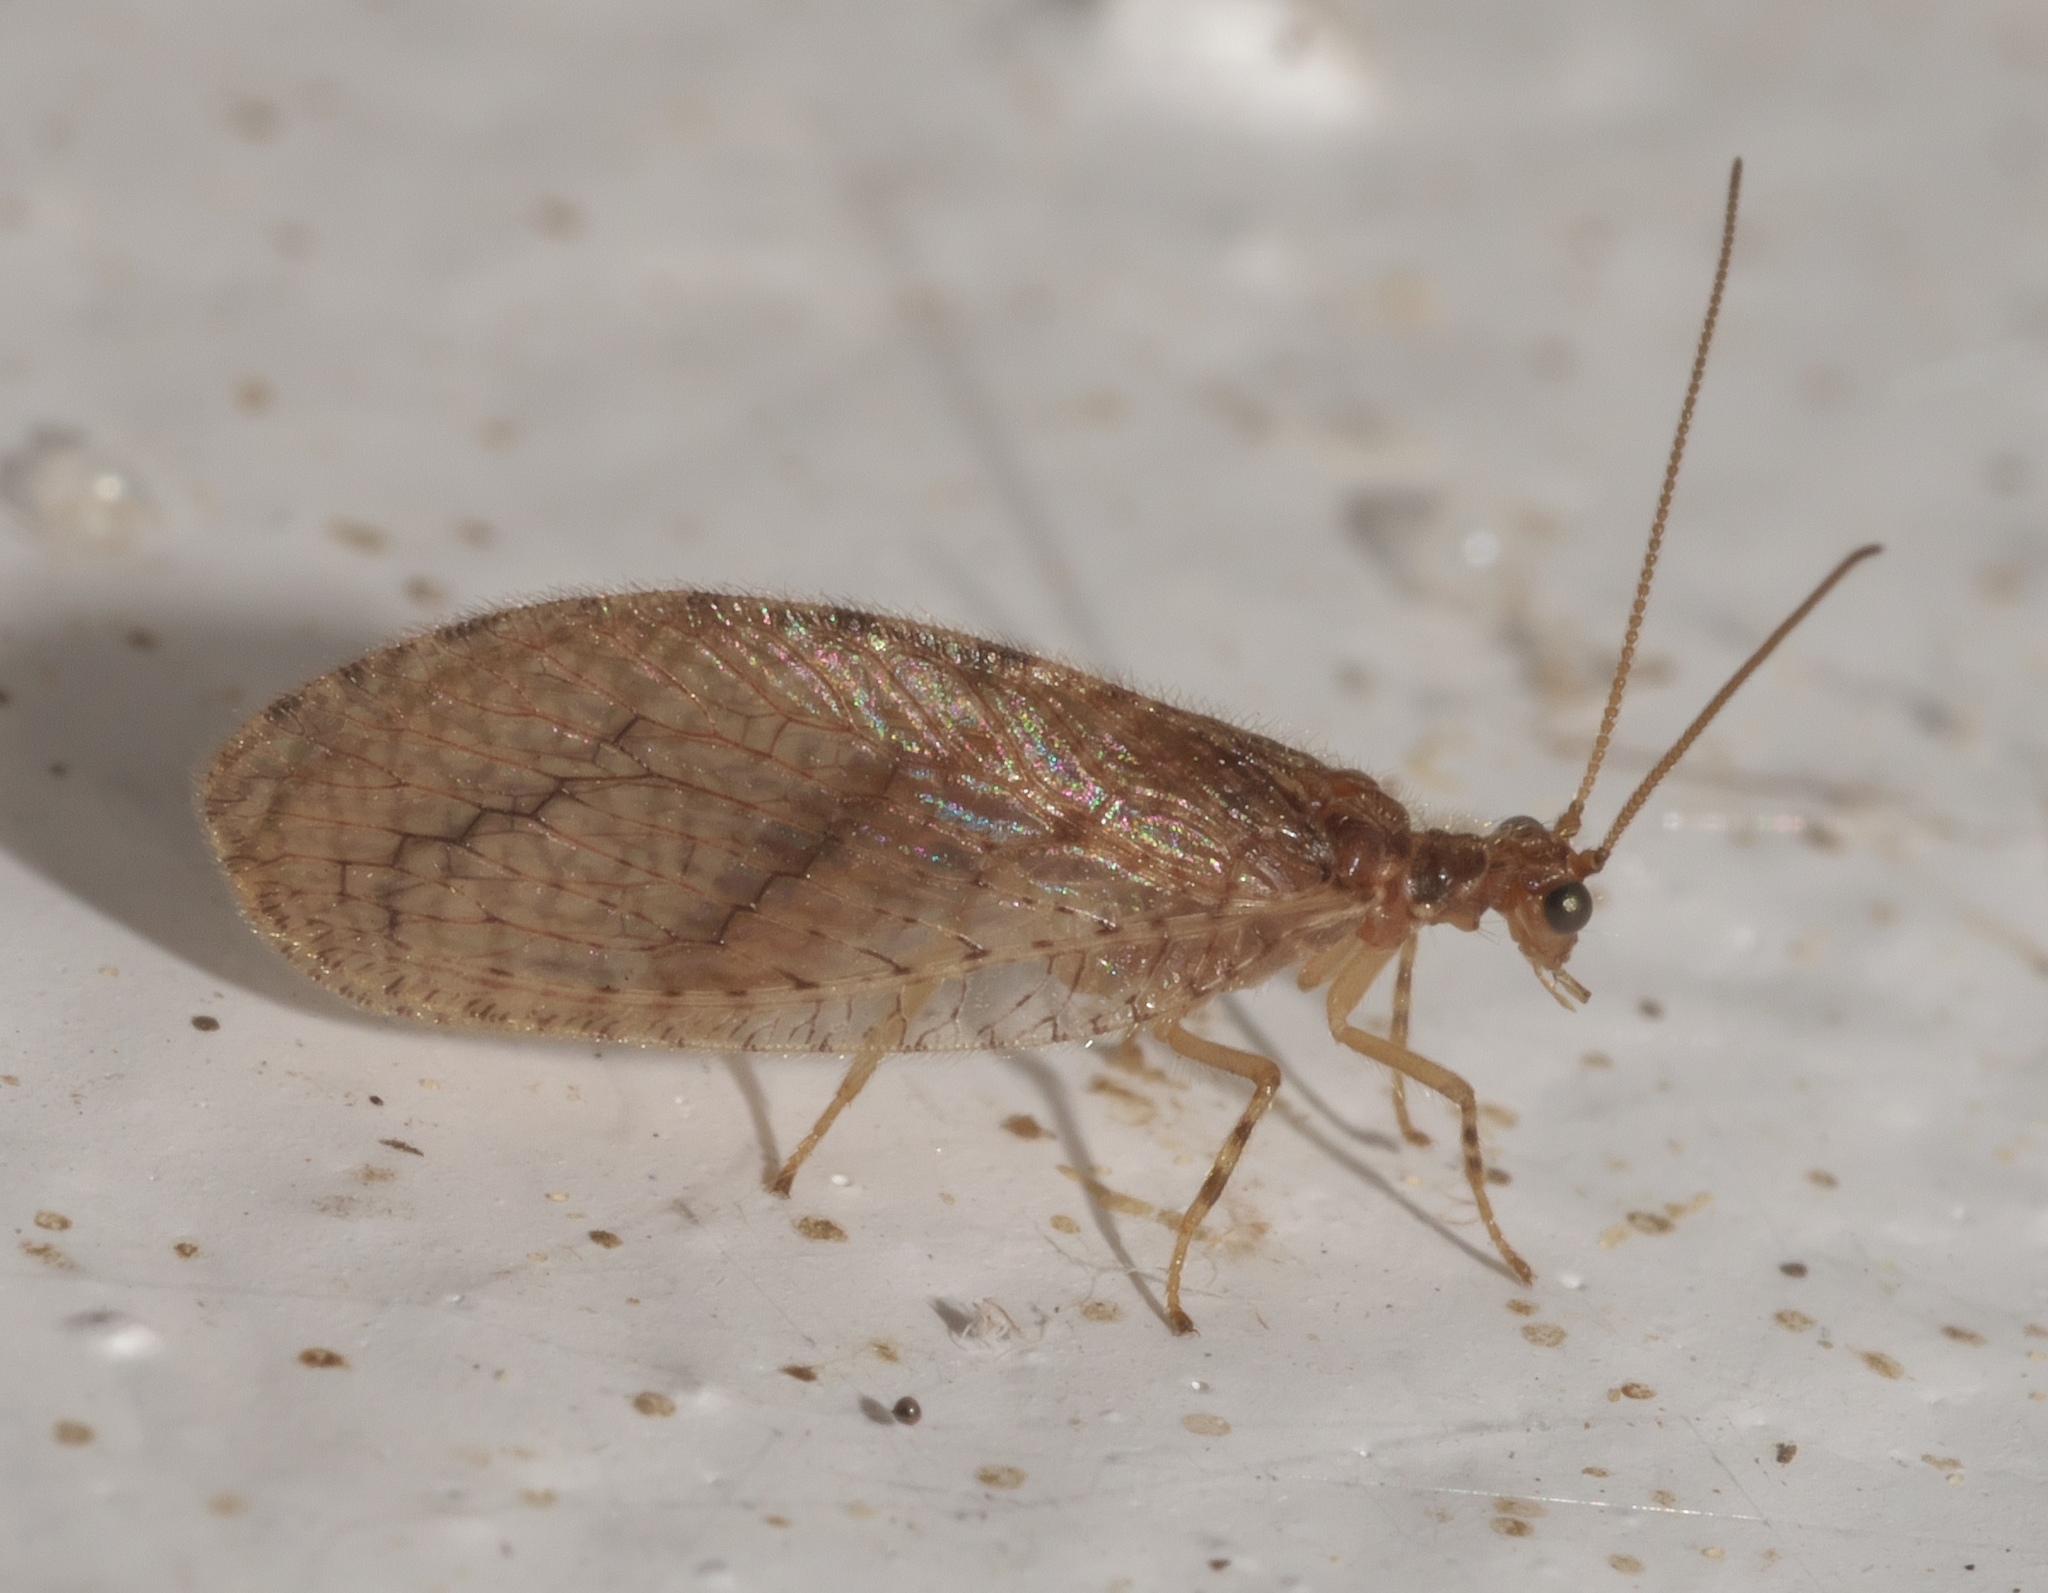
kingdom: Animalia
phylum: Arthropoda
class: Insecta
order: Neuroptera
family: Hemerobiidae
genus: Micromus
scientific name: Micromus posticus
